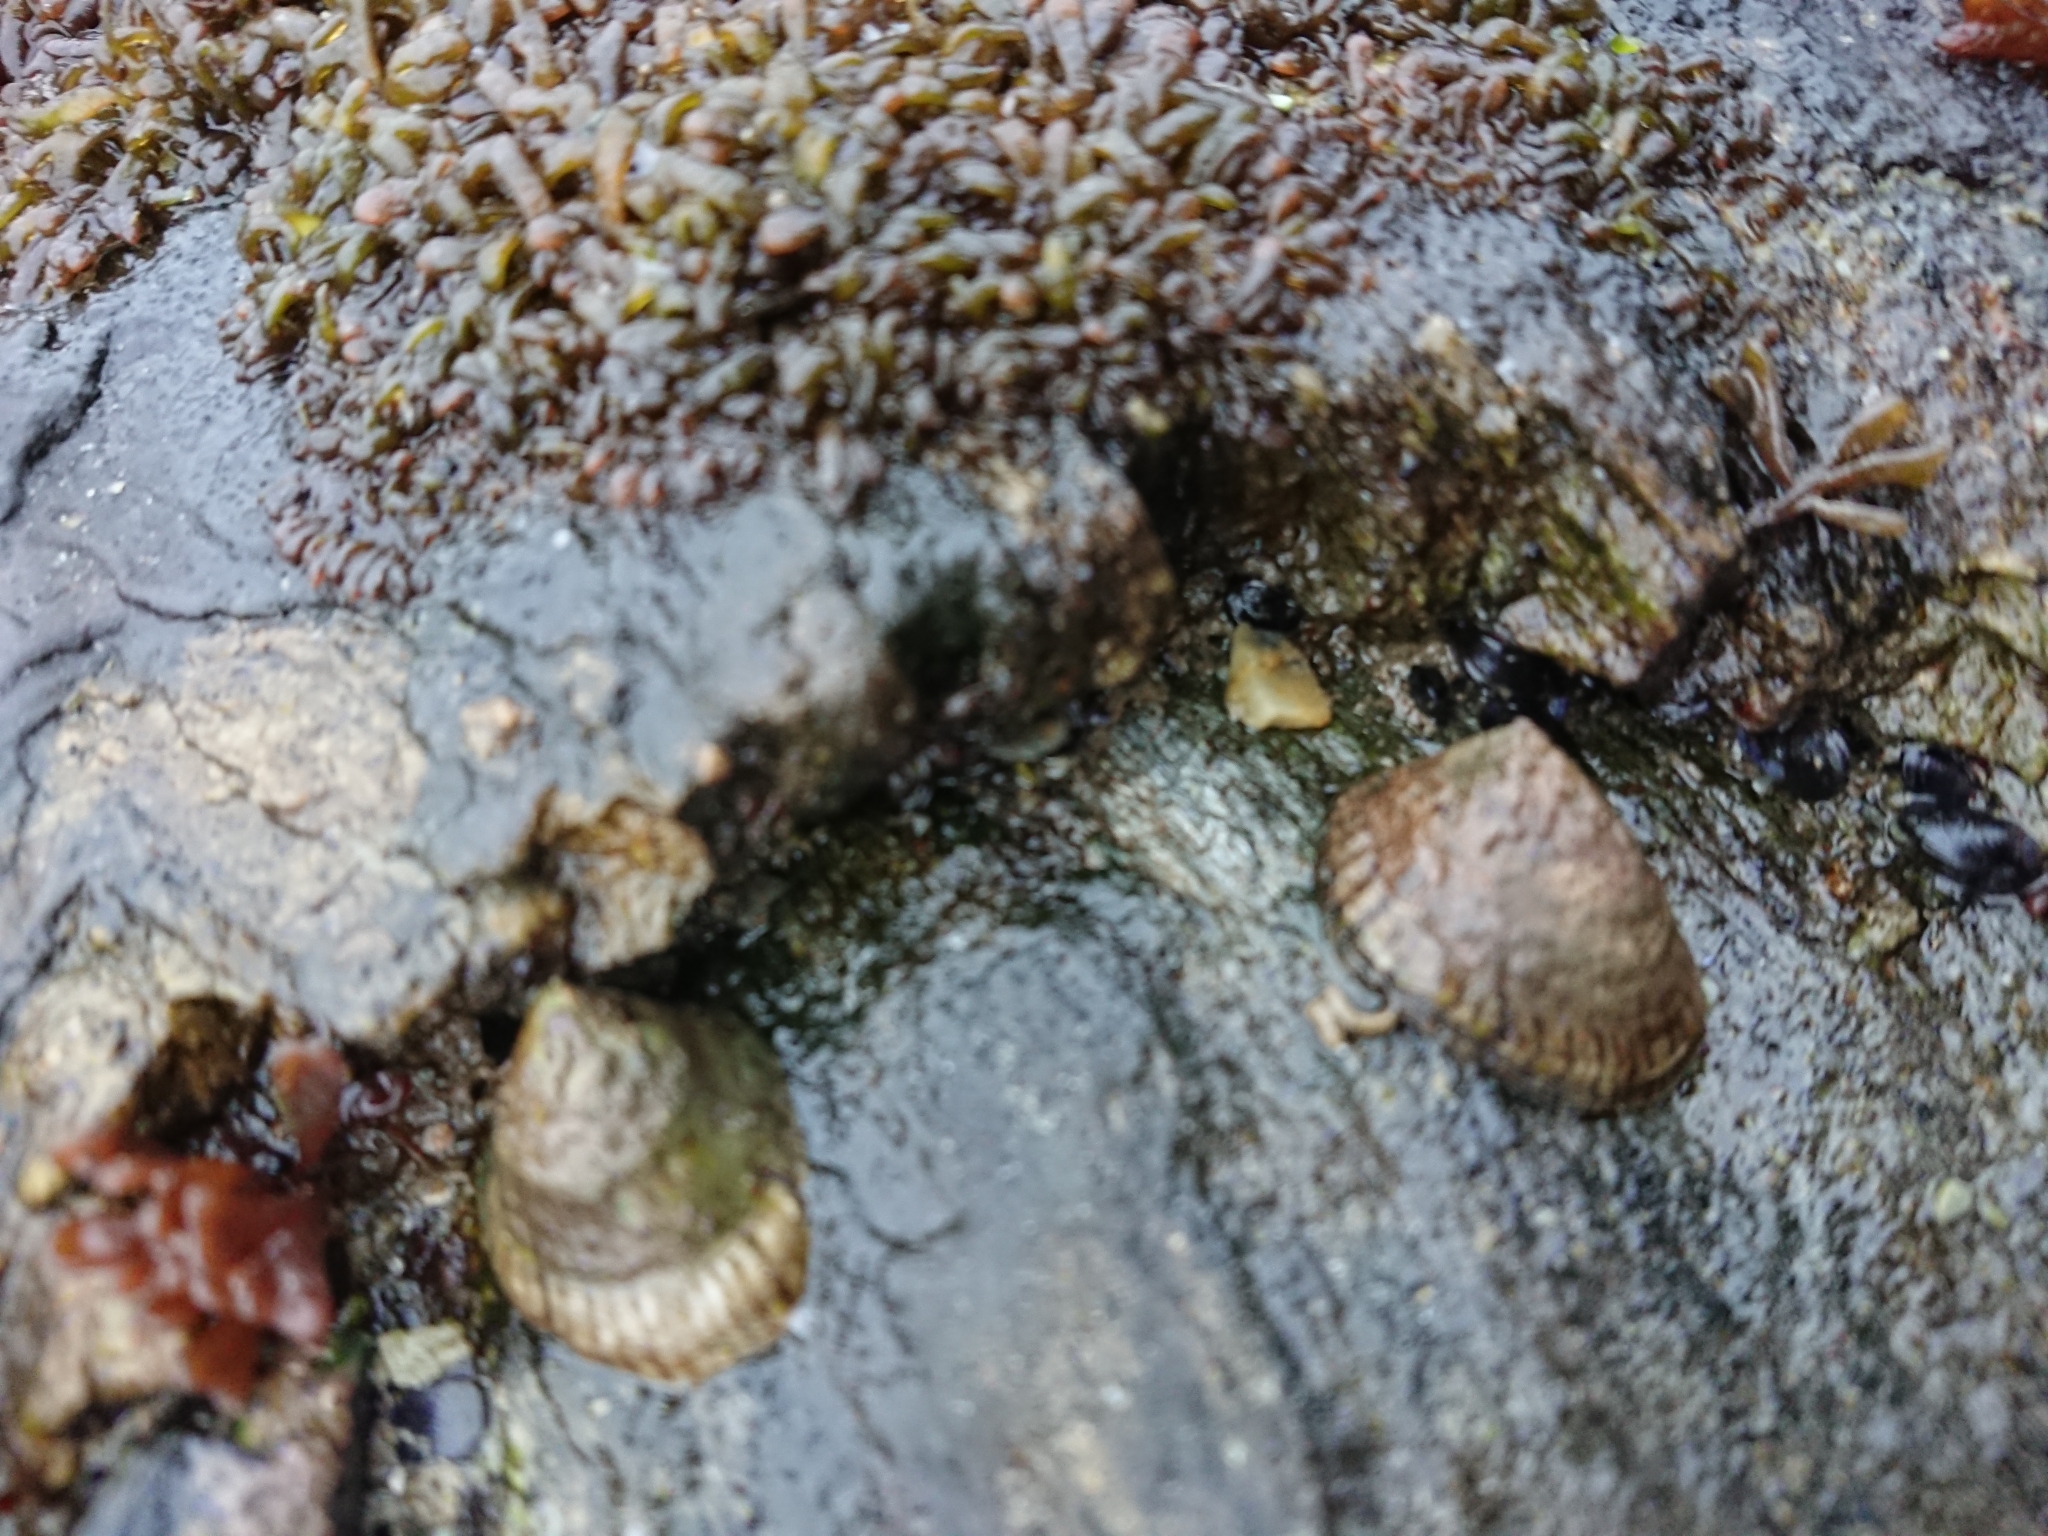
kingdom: Animalia
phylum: Mollusca
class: Gastropoda
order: Siphonariida
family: Siphonariidae
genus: Siphonaria
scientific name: Siphonaria lessonii
